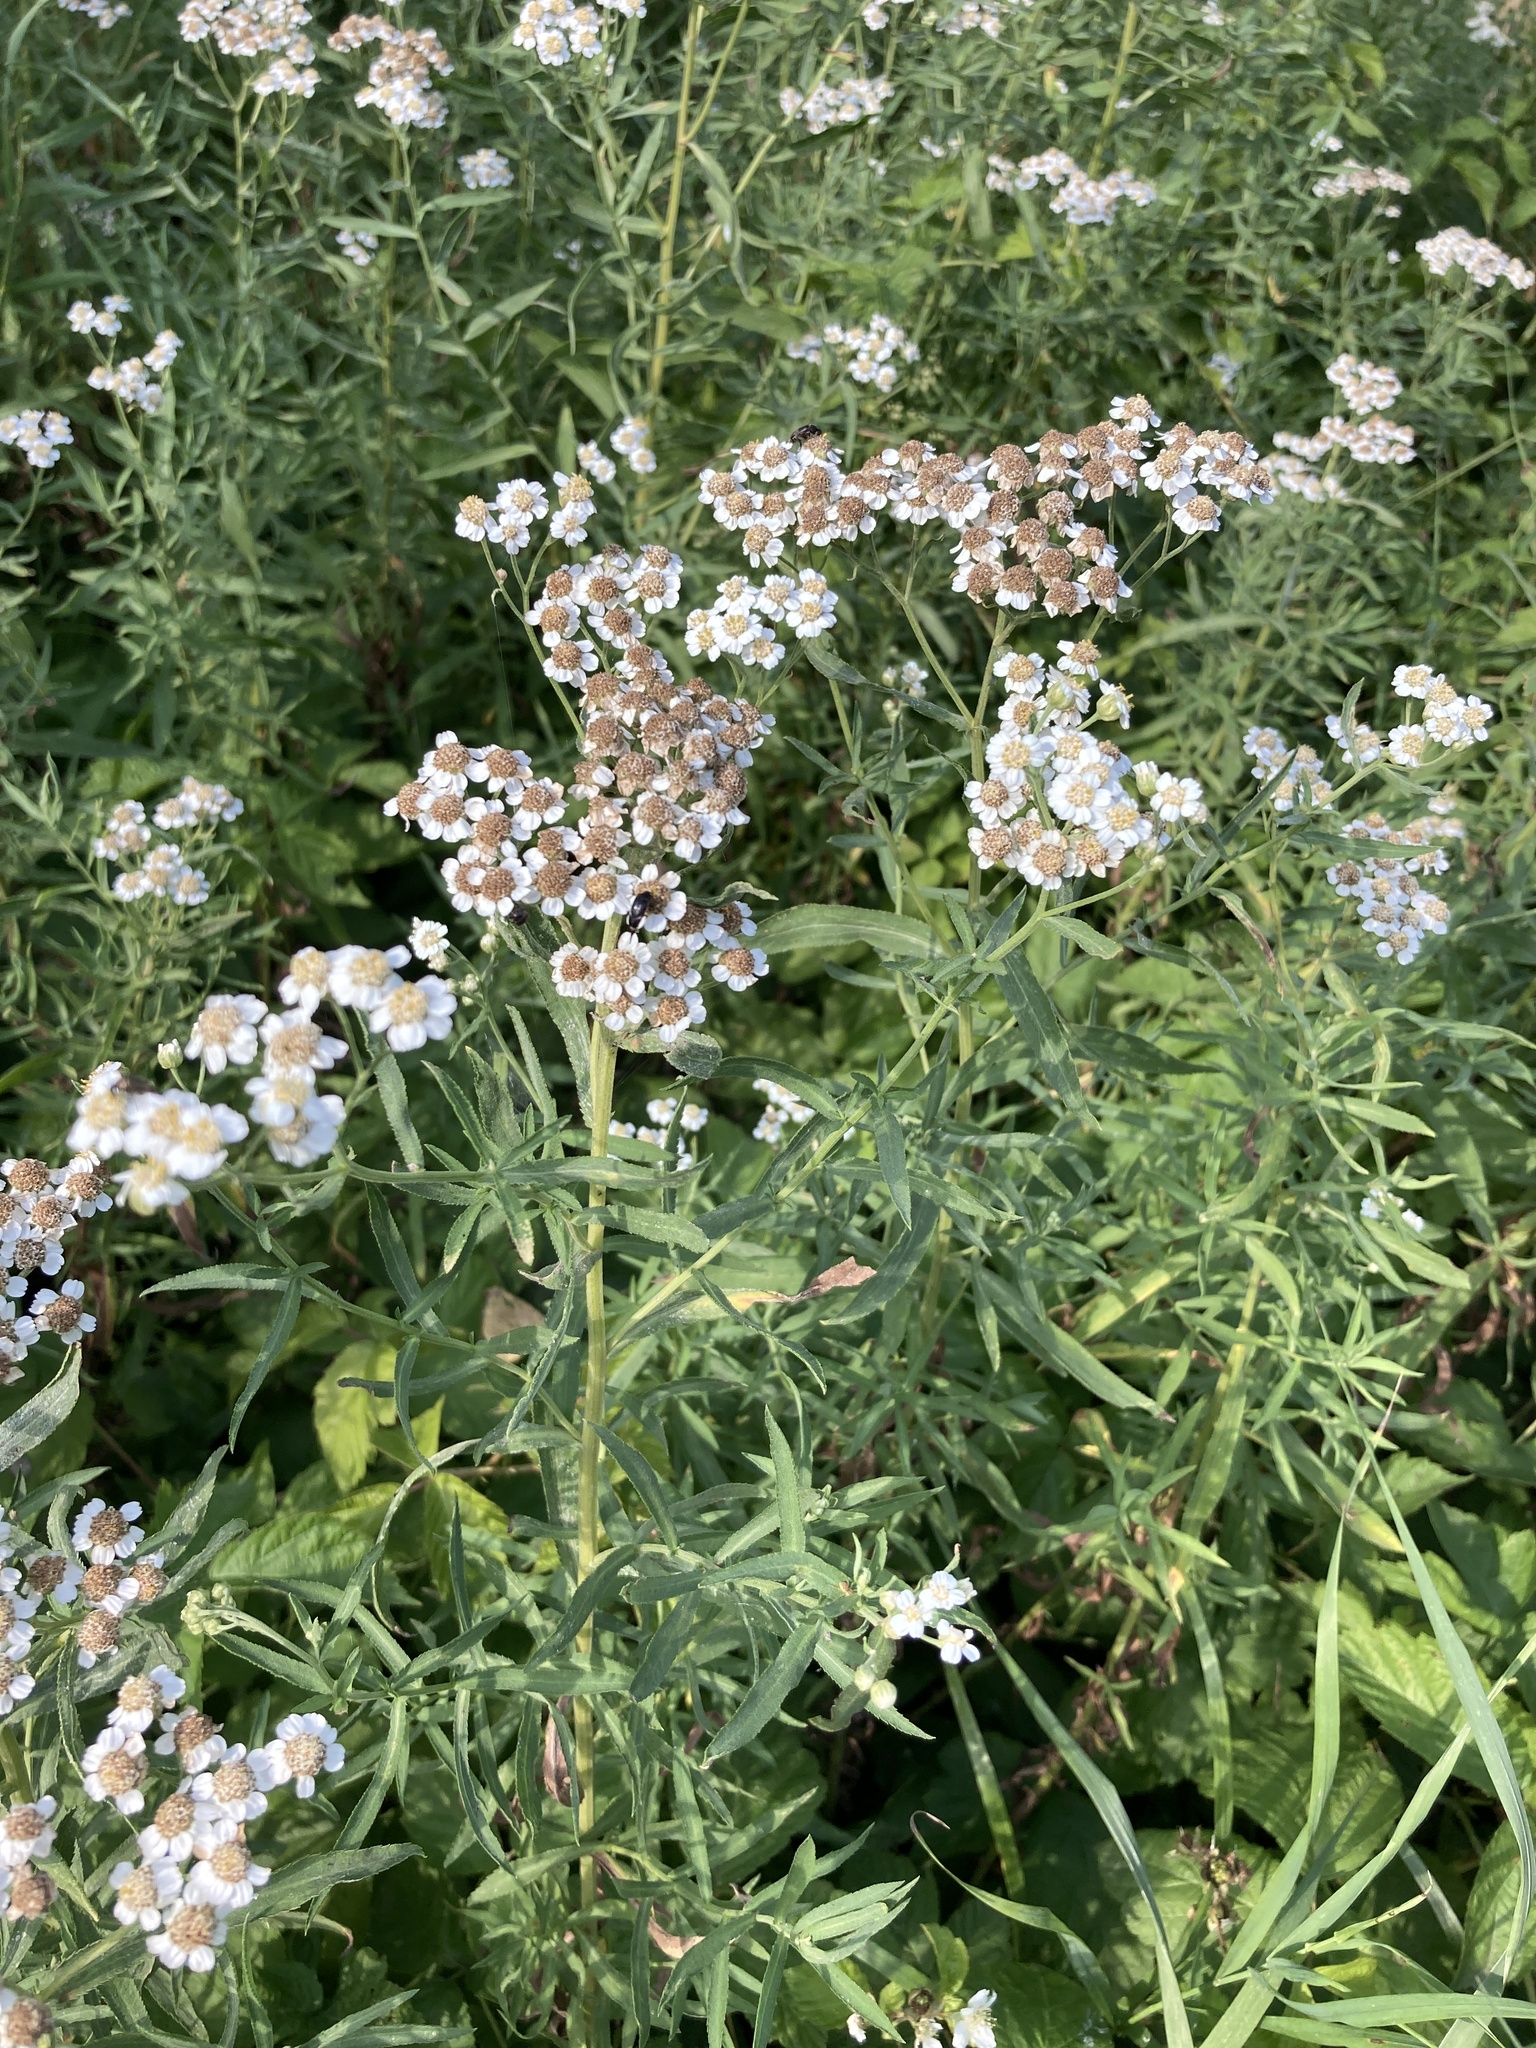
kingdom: Plantae
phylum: Tracheophyta
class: Magnoliopsida
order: Asterales
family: Asteraceae
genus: Achillea
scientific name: Achillea salicifolia
